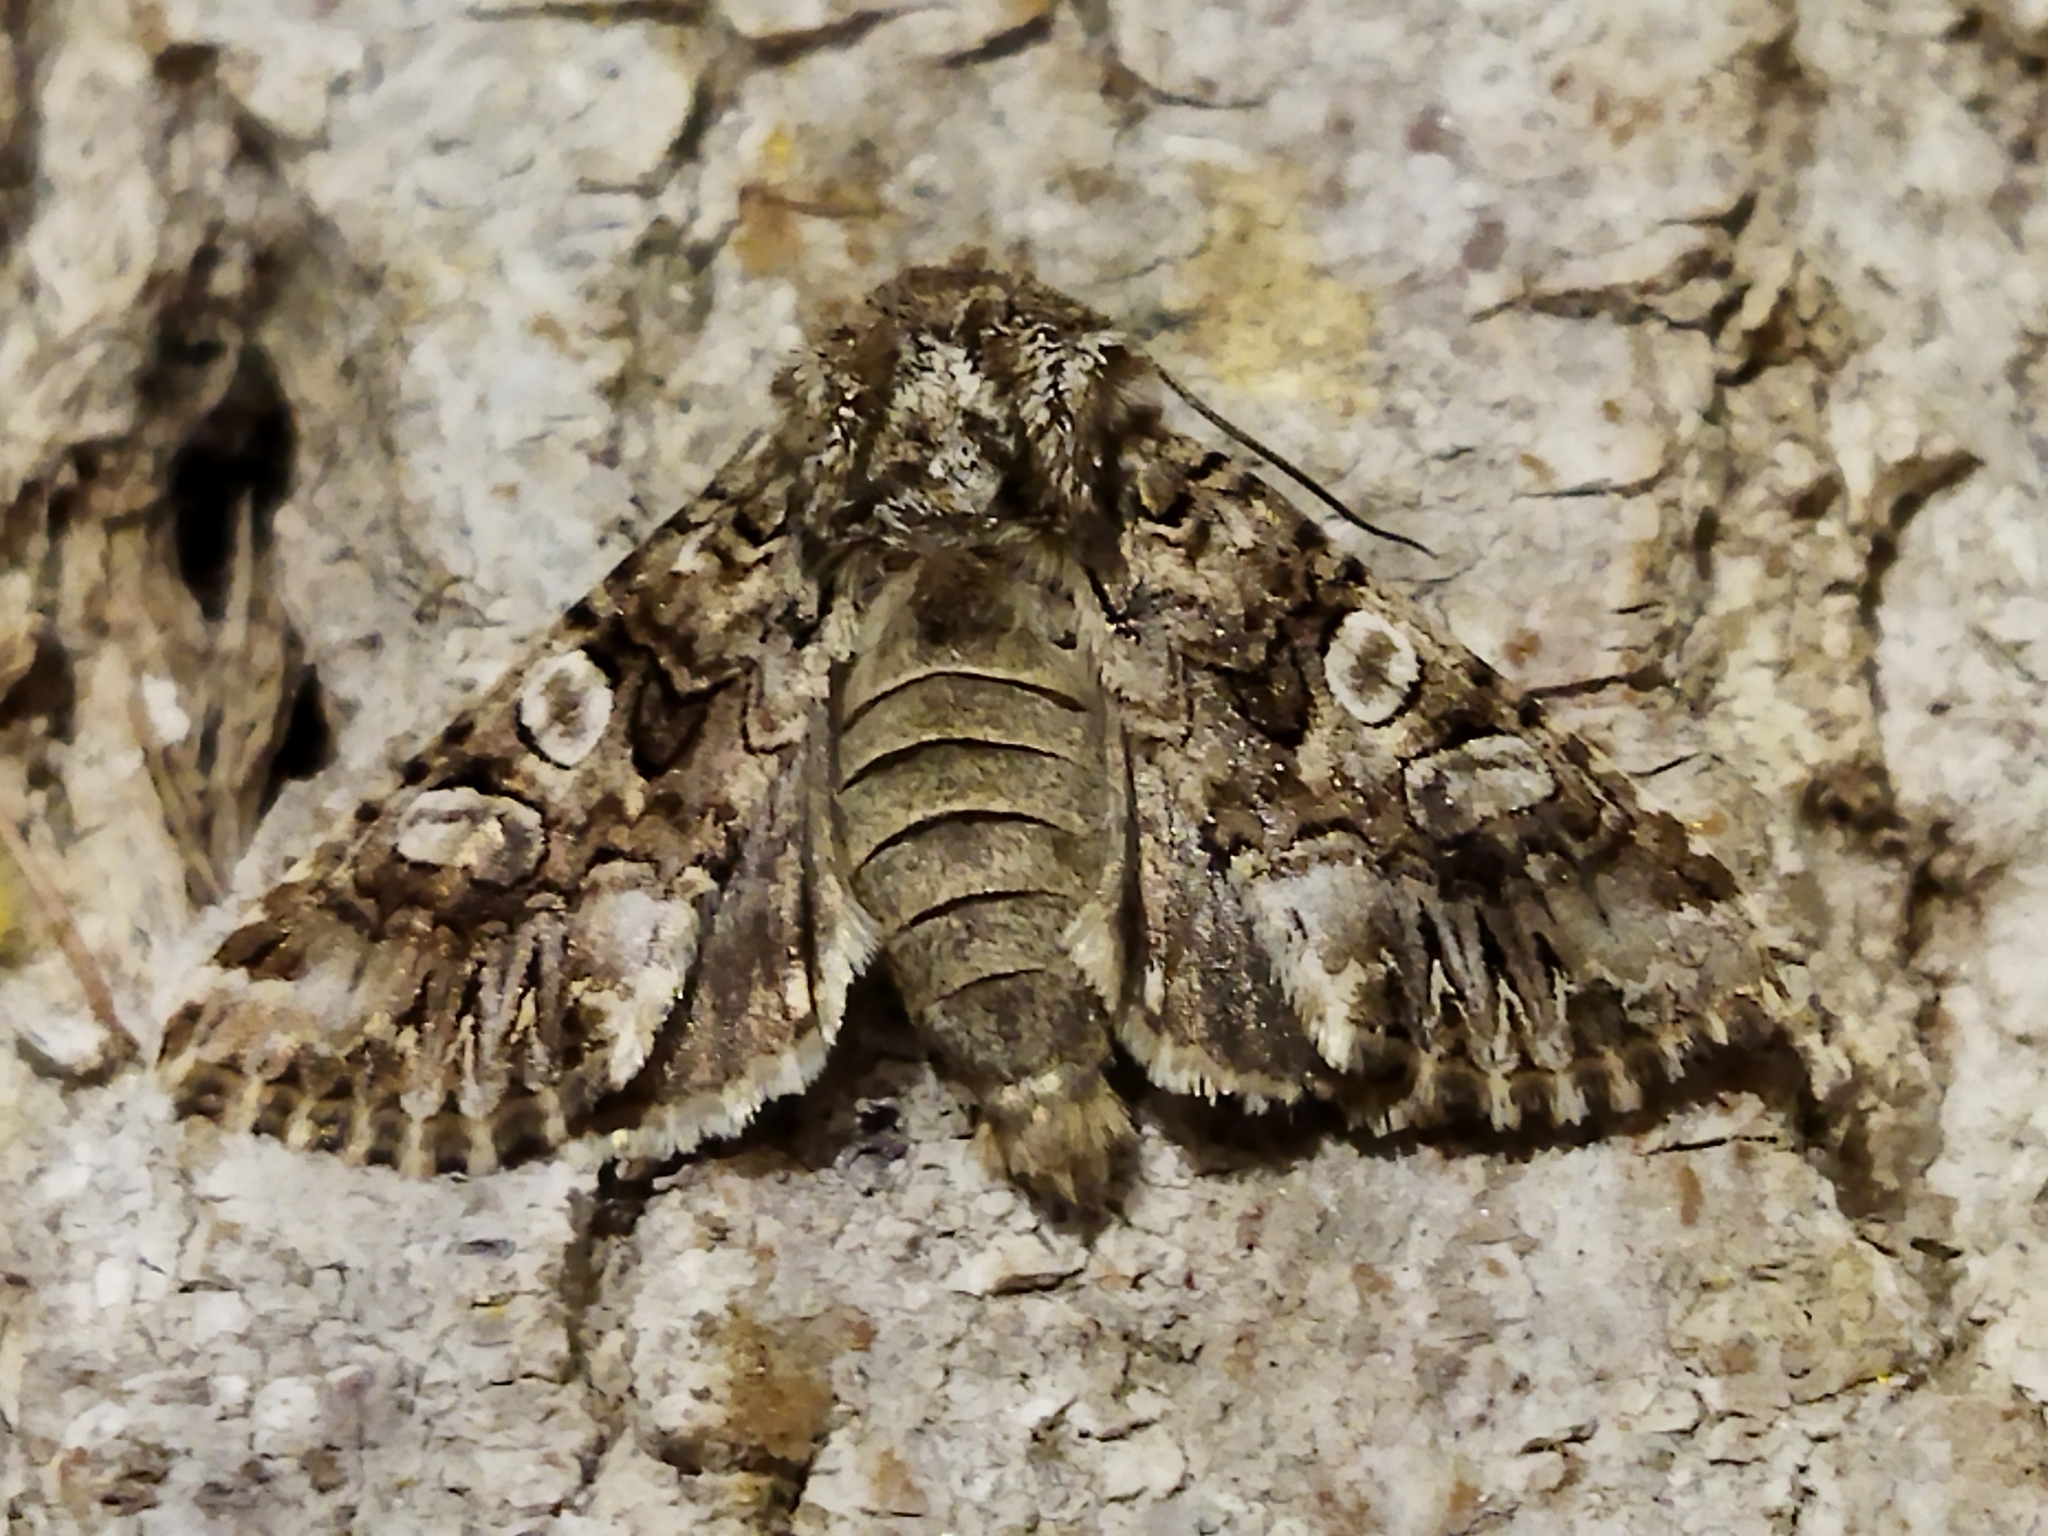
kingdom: Animalia
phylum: Arthropoda
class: Insecta
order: Lepidoptera
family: Noctuidae
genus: Hadena
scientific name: Hadena silenes
